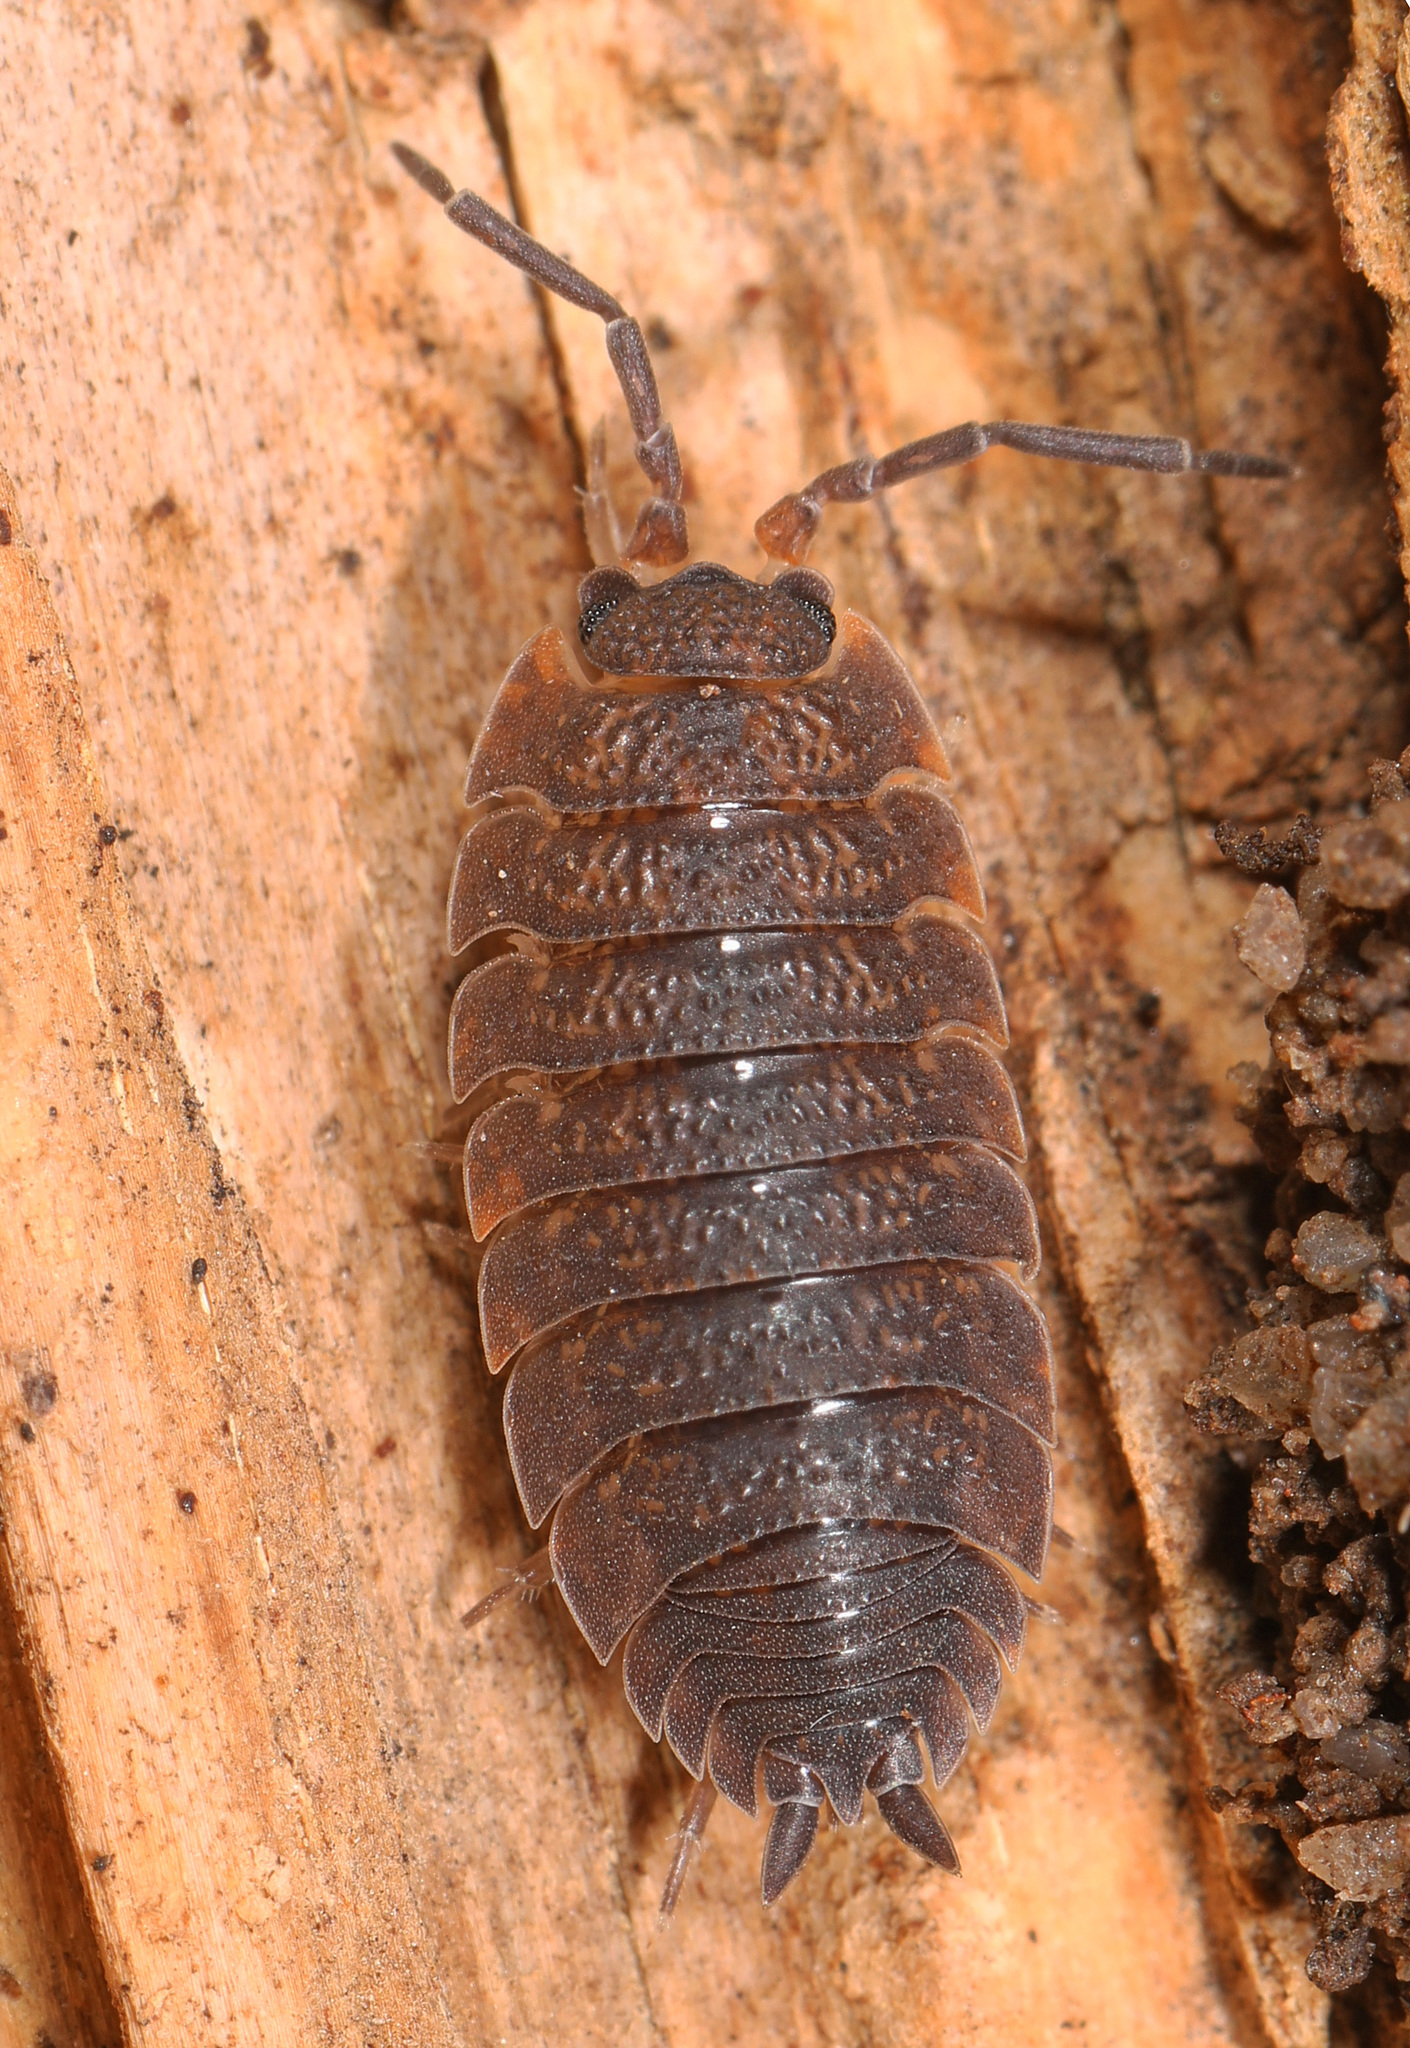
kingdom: Animalia
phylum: Arthropoda
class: Malacostraca
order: Isopoda
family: Porcellionidae
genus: Porcellio
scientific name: Porcellio scaber
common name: Common rough woodlouse
